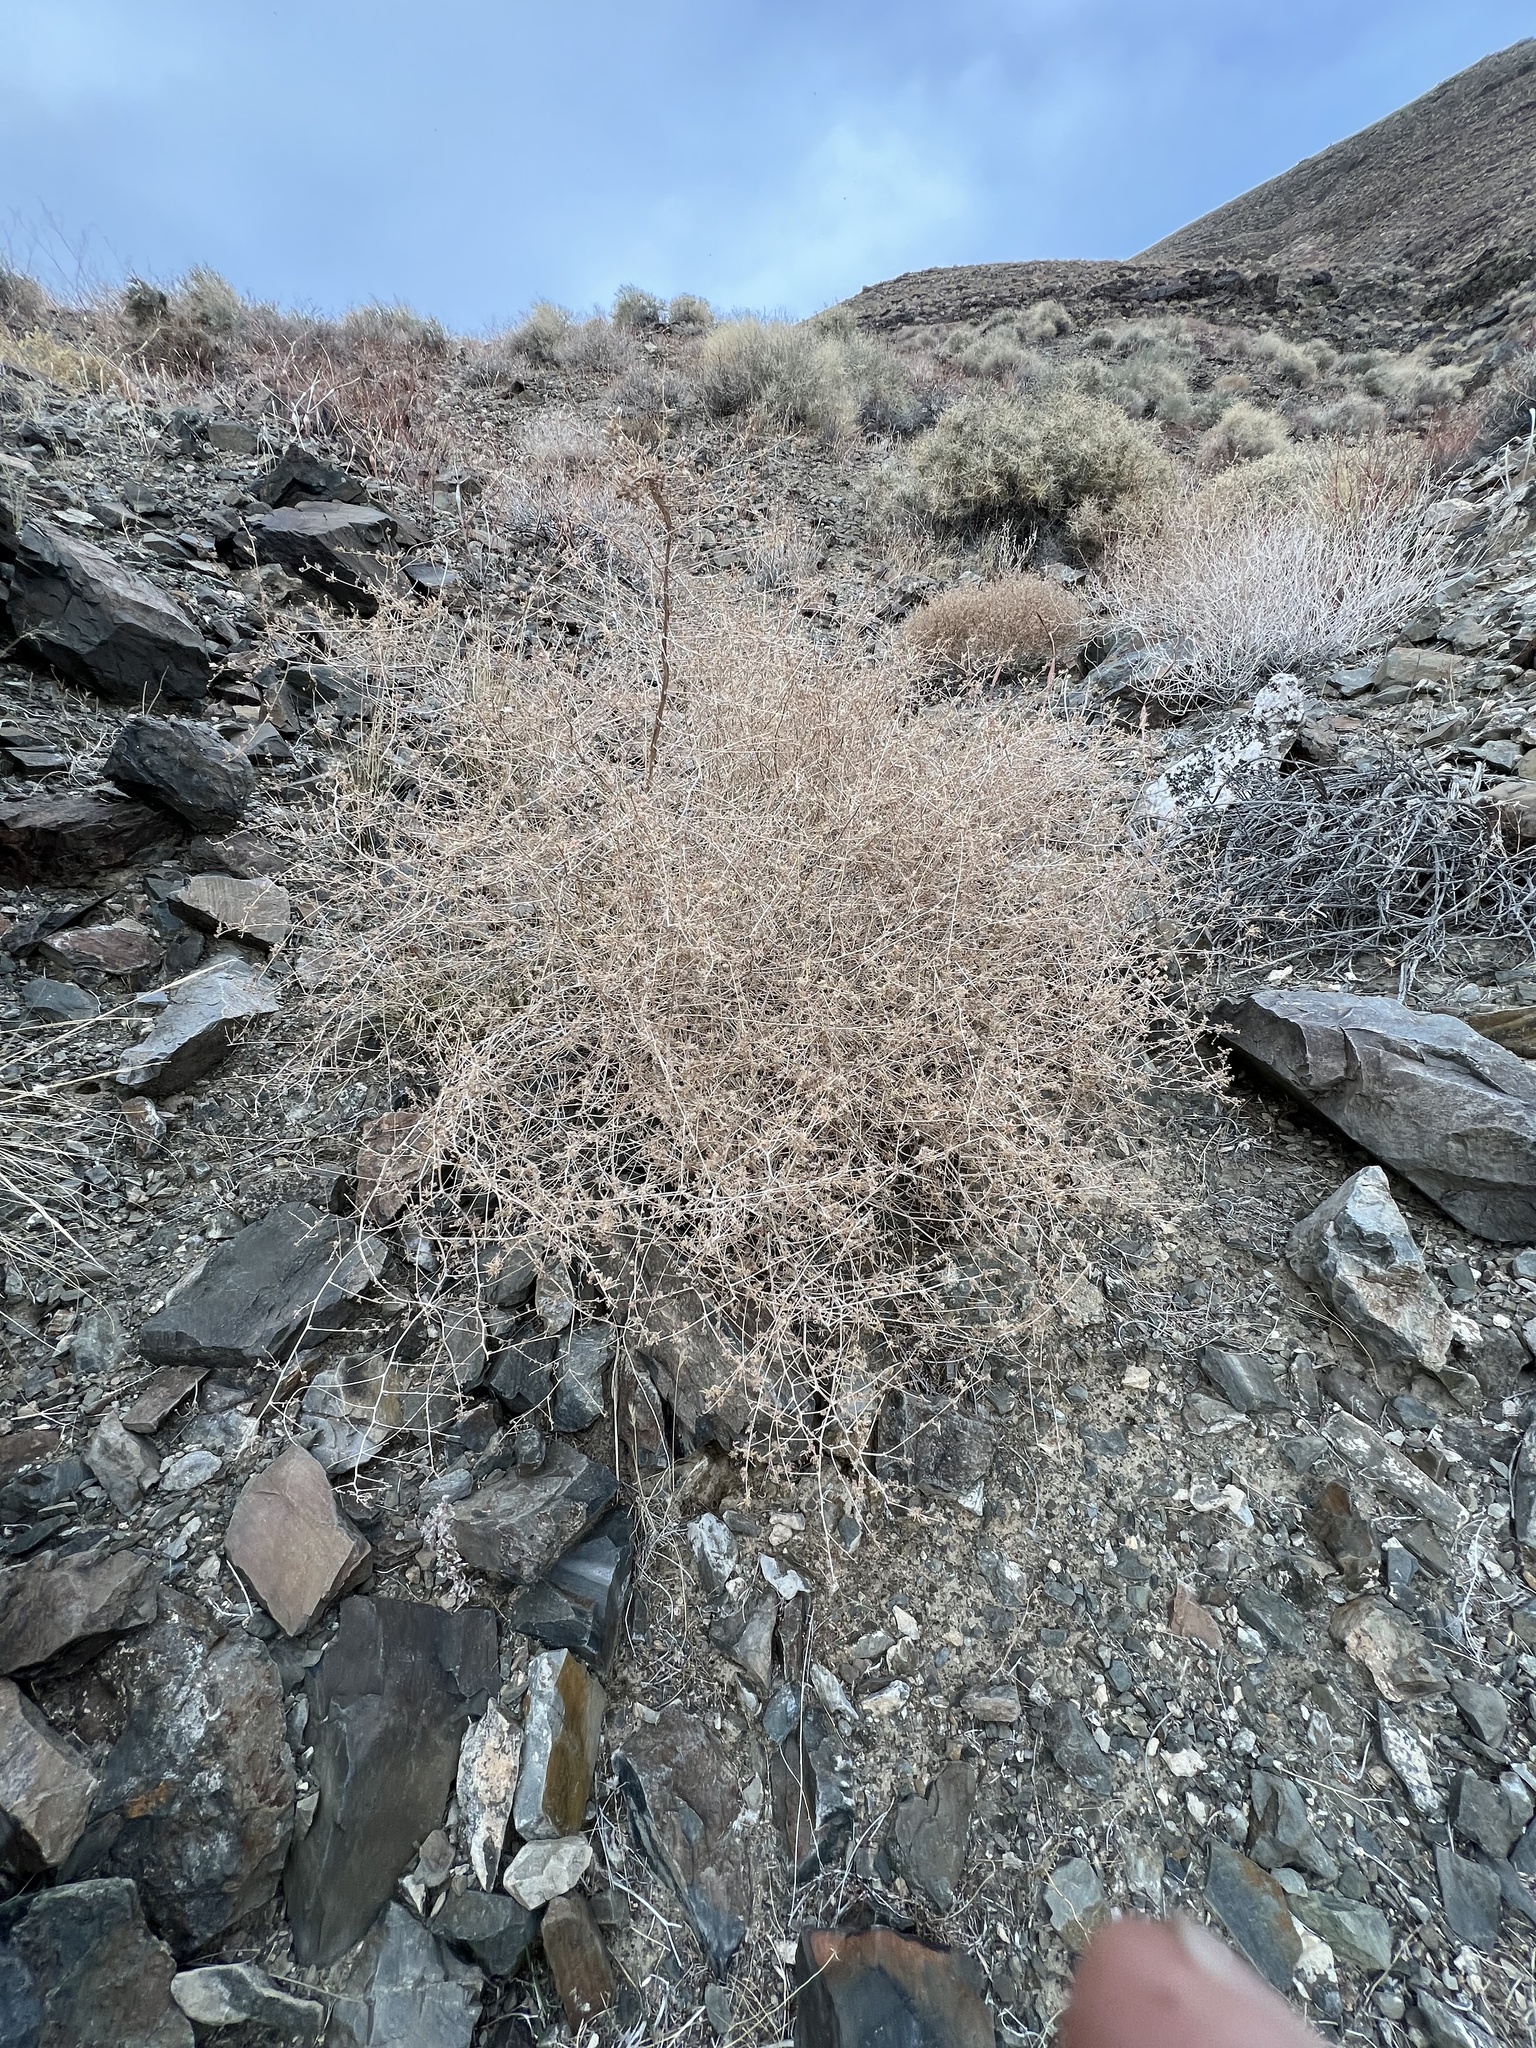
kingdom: Plantae
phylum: Tracheophyta
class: Magnoliopsida
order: Asterales
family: Asteraceae
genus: Stephanomeria
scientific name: Stephanomeria pauciflora
